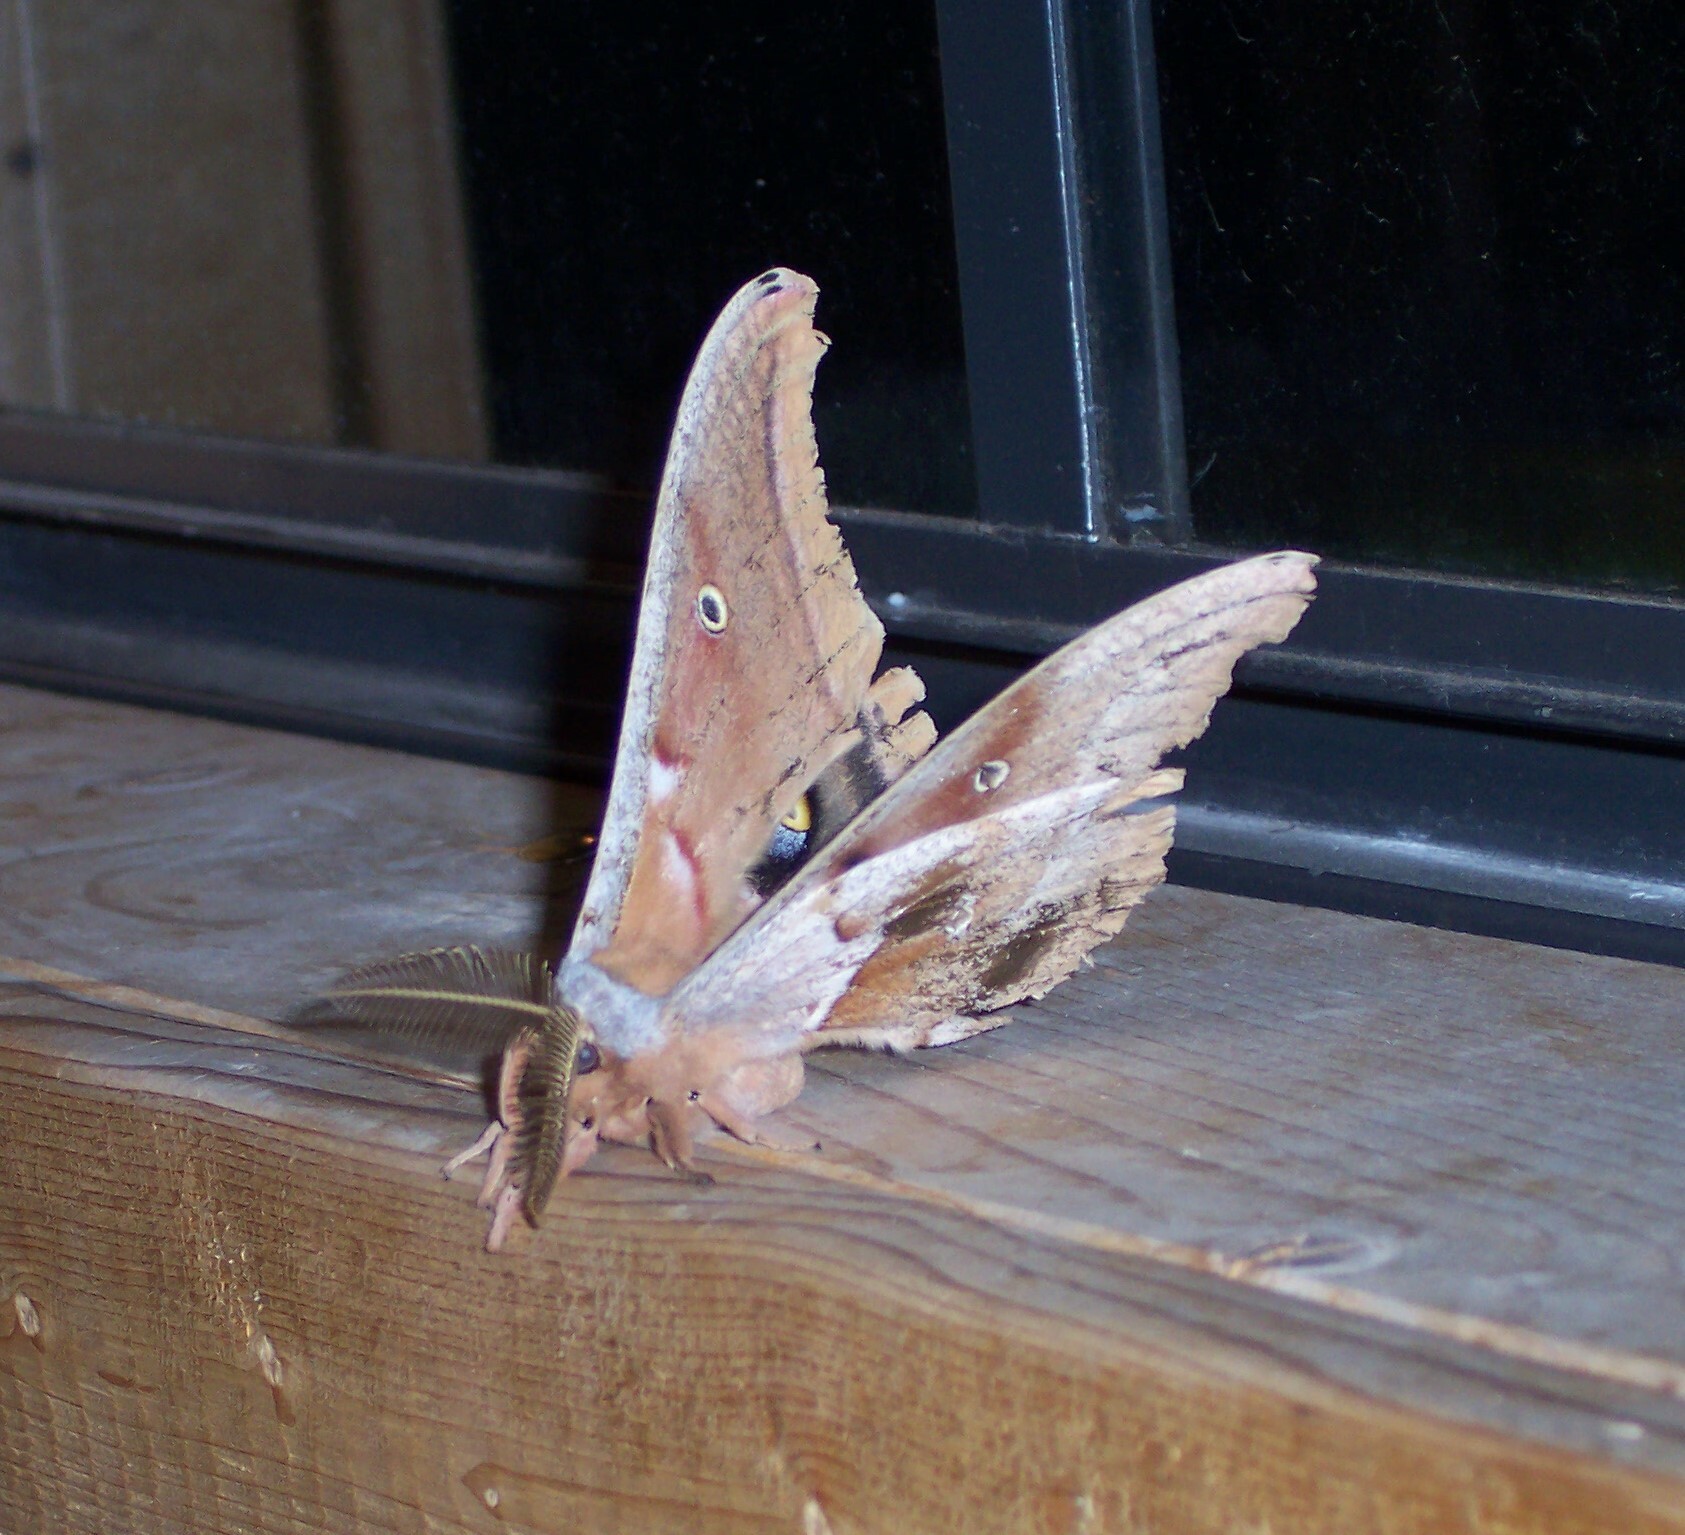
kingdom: Animalia
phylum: Arthropoda
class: Insecta
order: Lepidoptera
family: Saturniidae
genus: Antheraea
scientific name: Antheraea polyphemus
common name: Polyphemus moth
